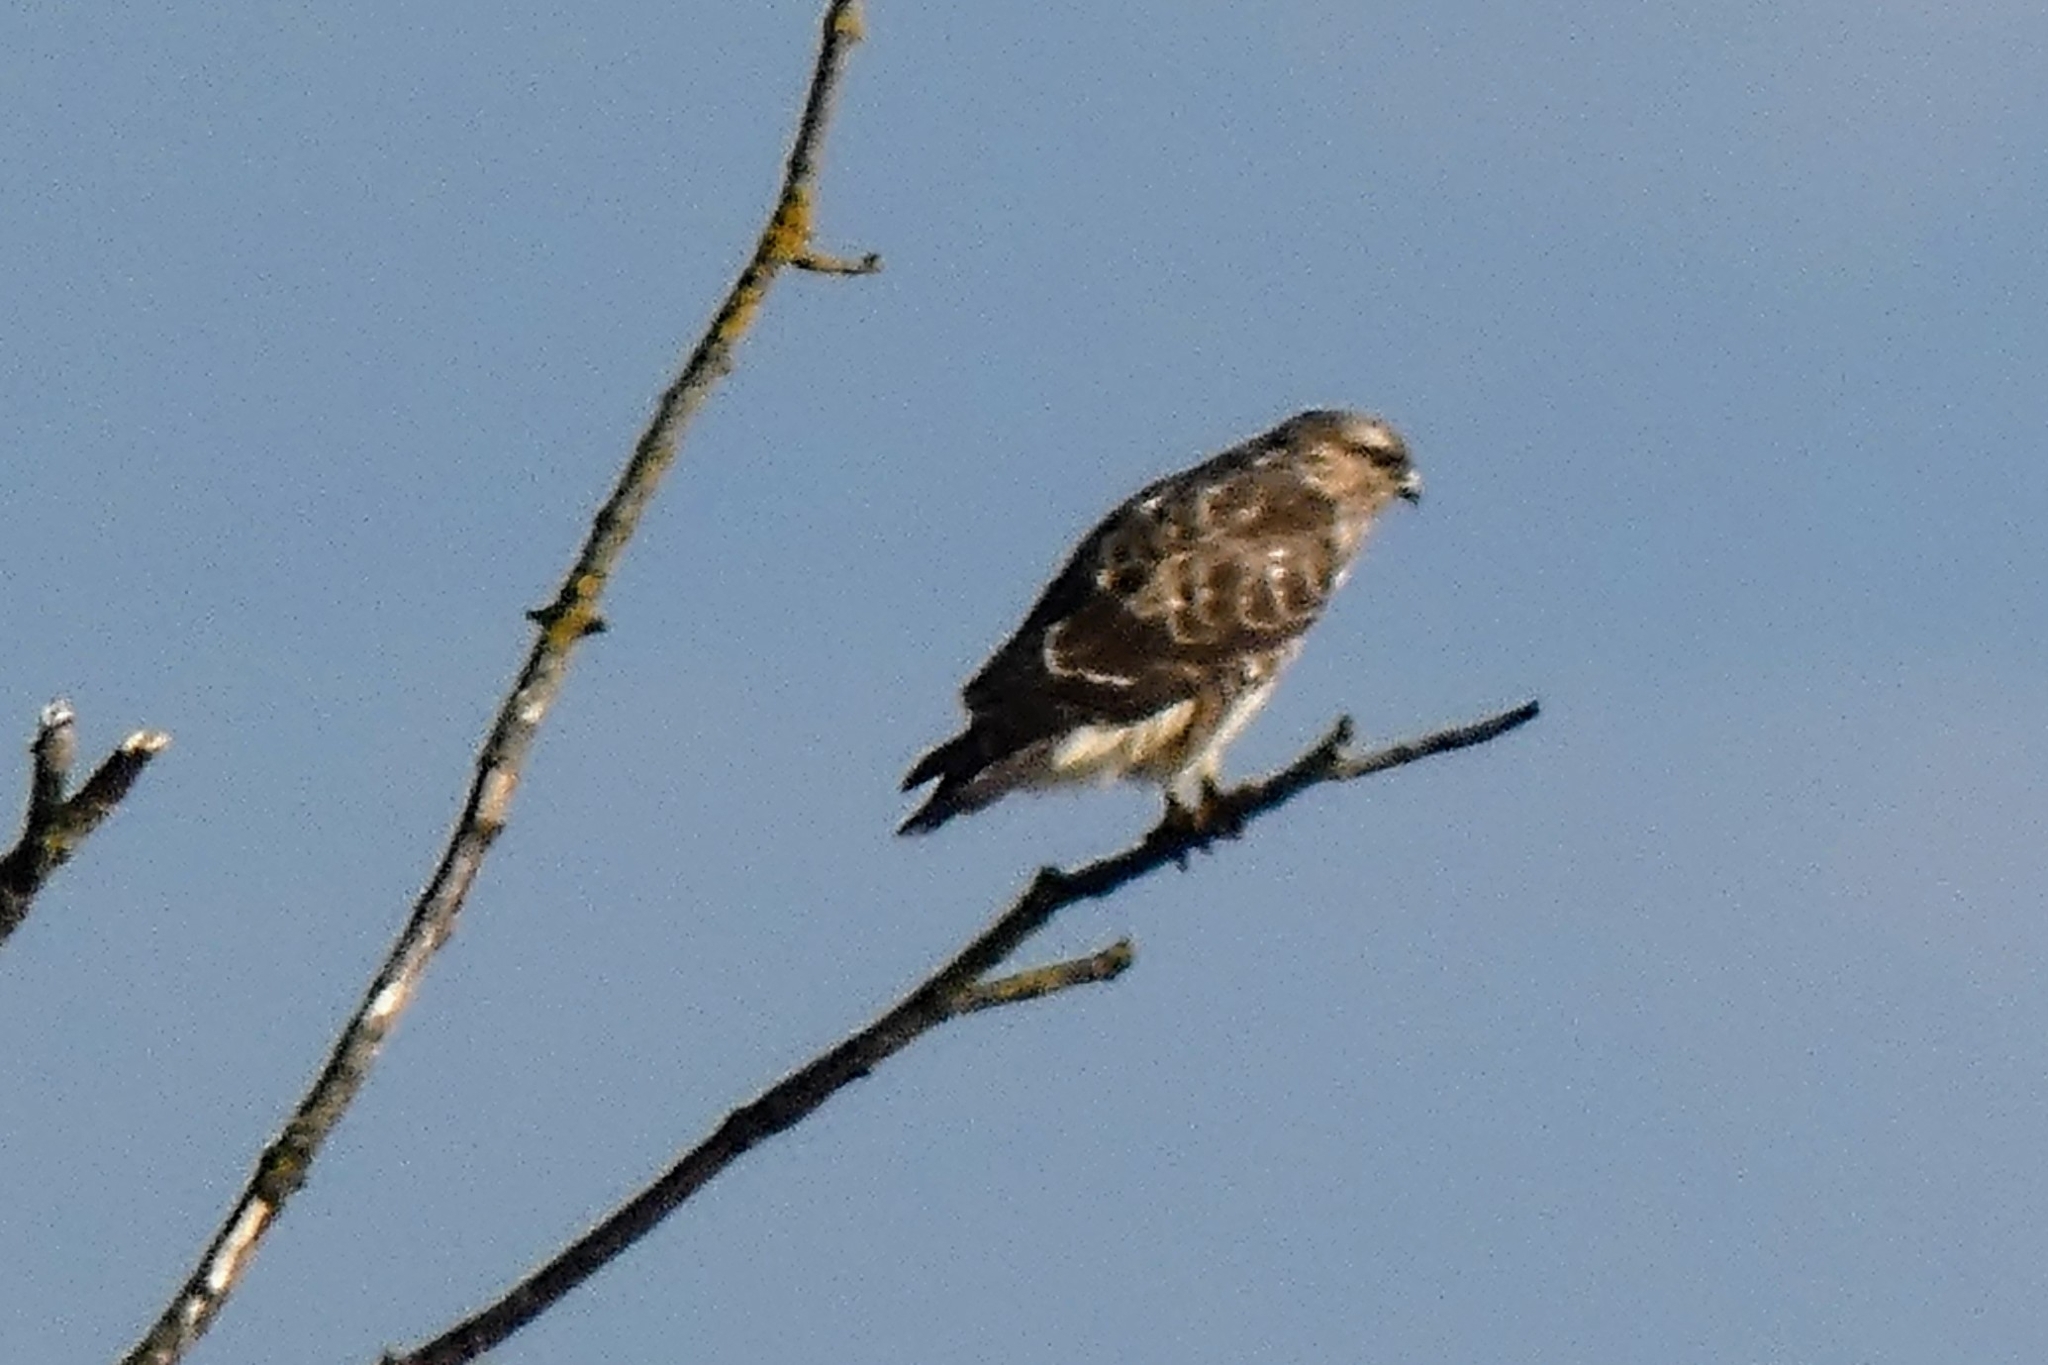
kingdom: Animalia
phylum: Chordata
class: Aves
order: Accipitriformes
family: Accipitridae
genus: Buteo
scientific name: Buteo buteo
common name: Common buzzard
